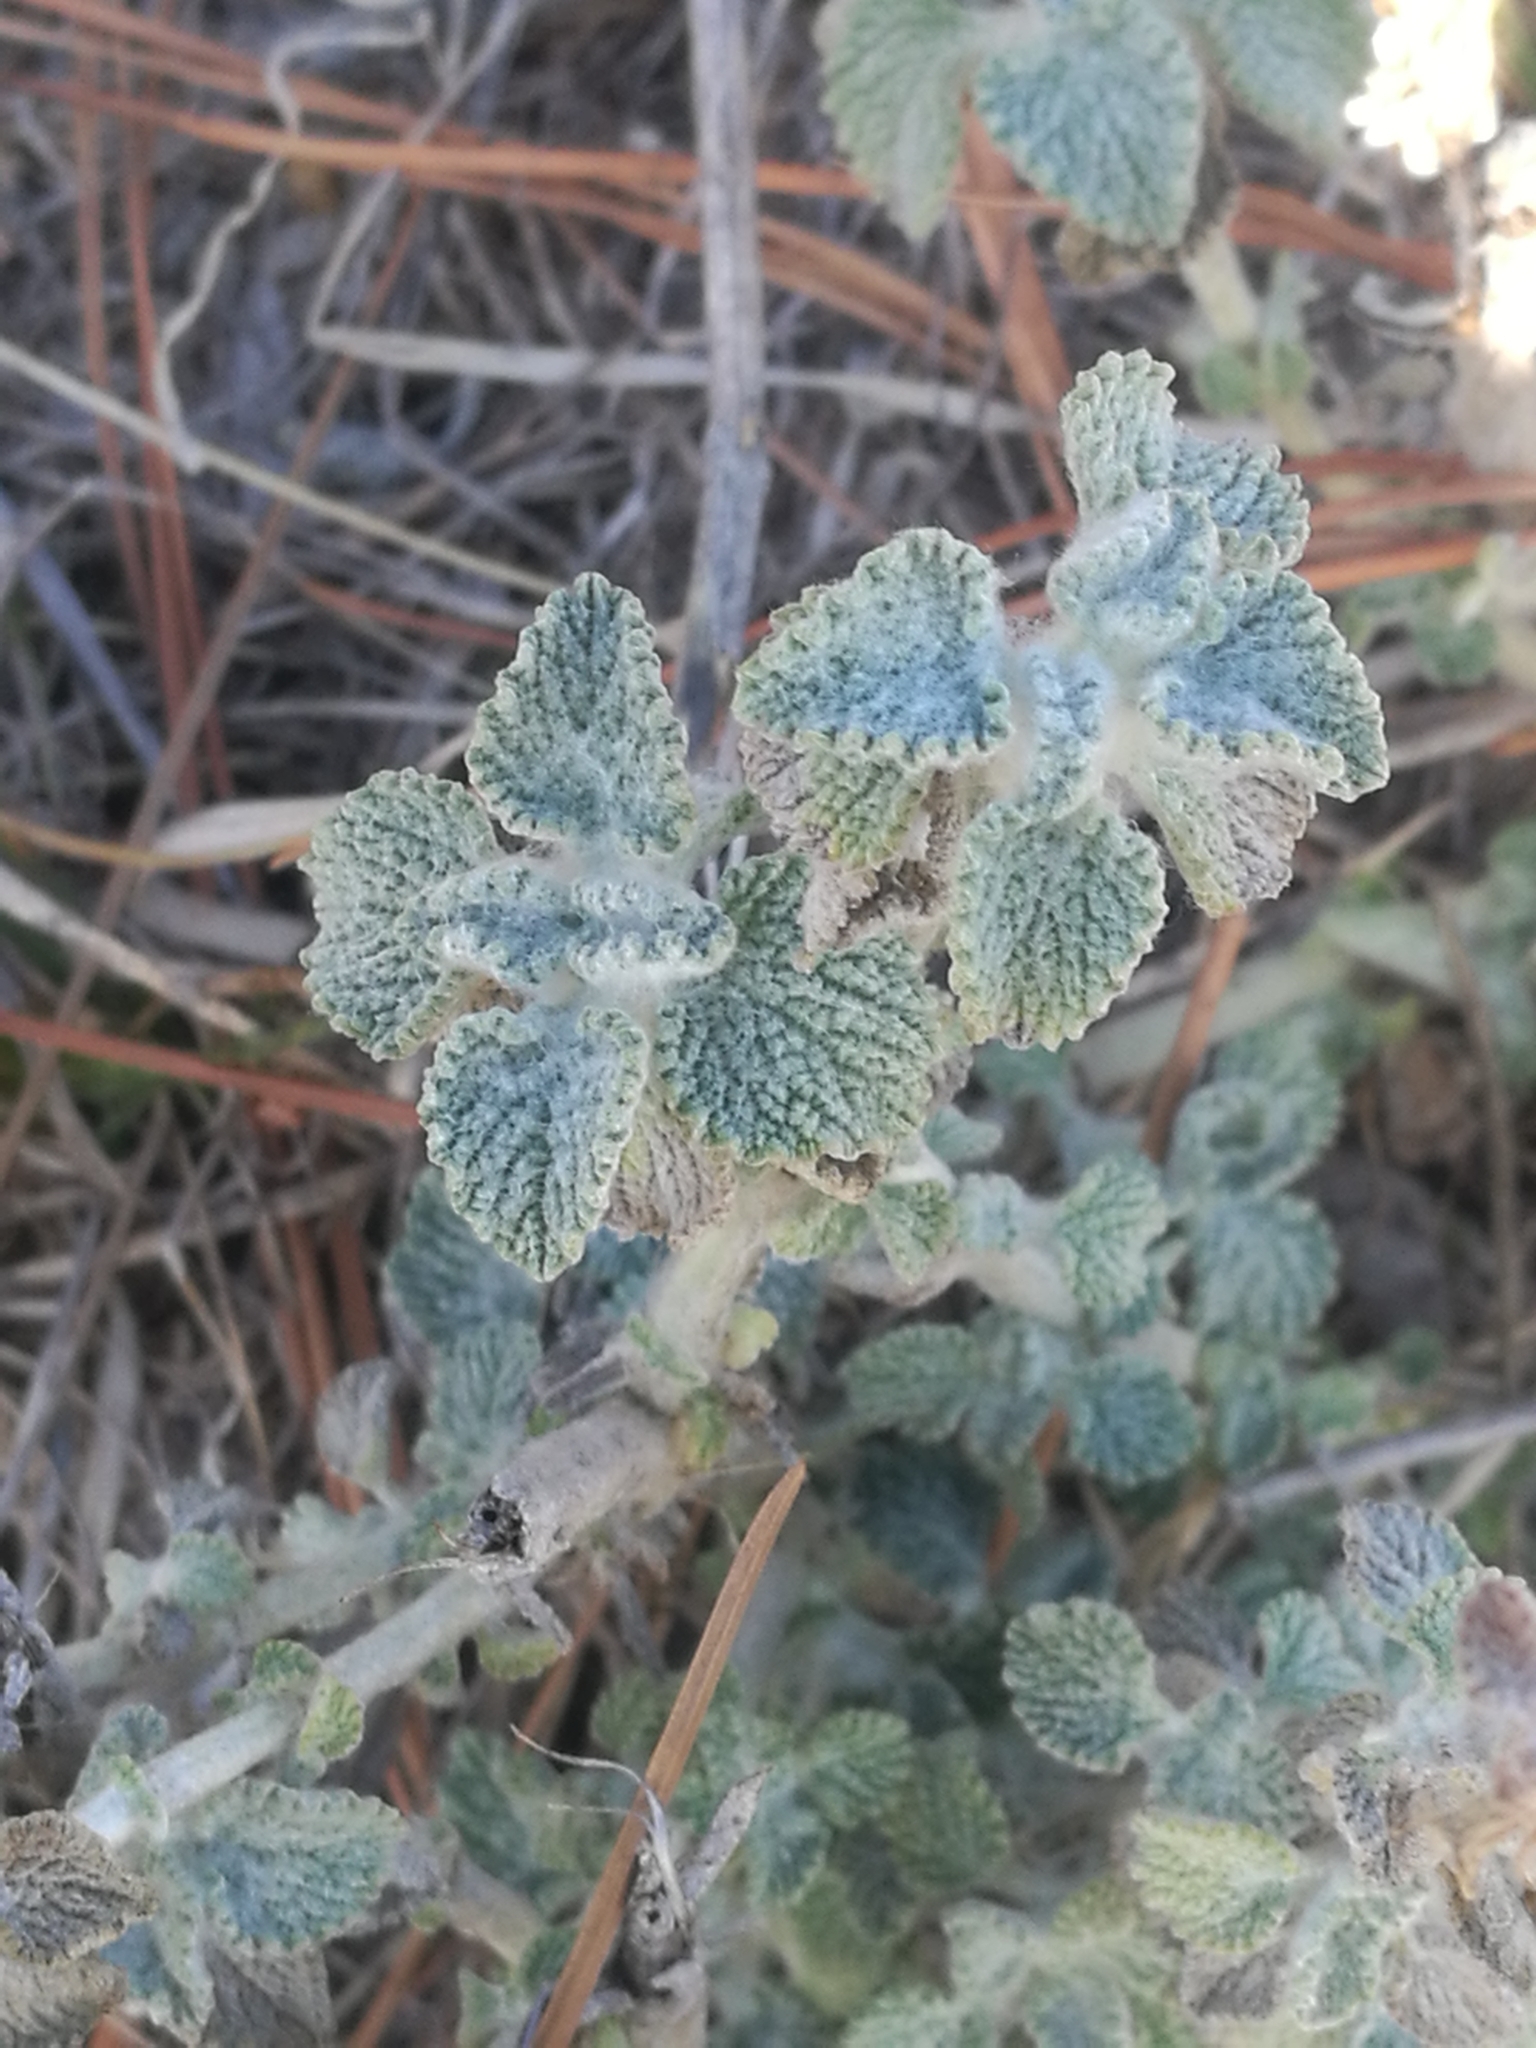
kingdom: Plantae
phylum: Tracheophyta
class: Magnoliopsida
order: Lamiales
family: Lamiaceae
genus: Marrubium
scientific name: Marrubium vulgare
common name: Horehound
